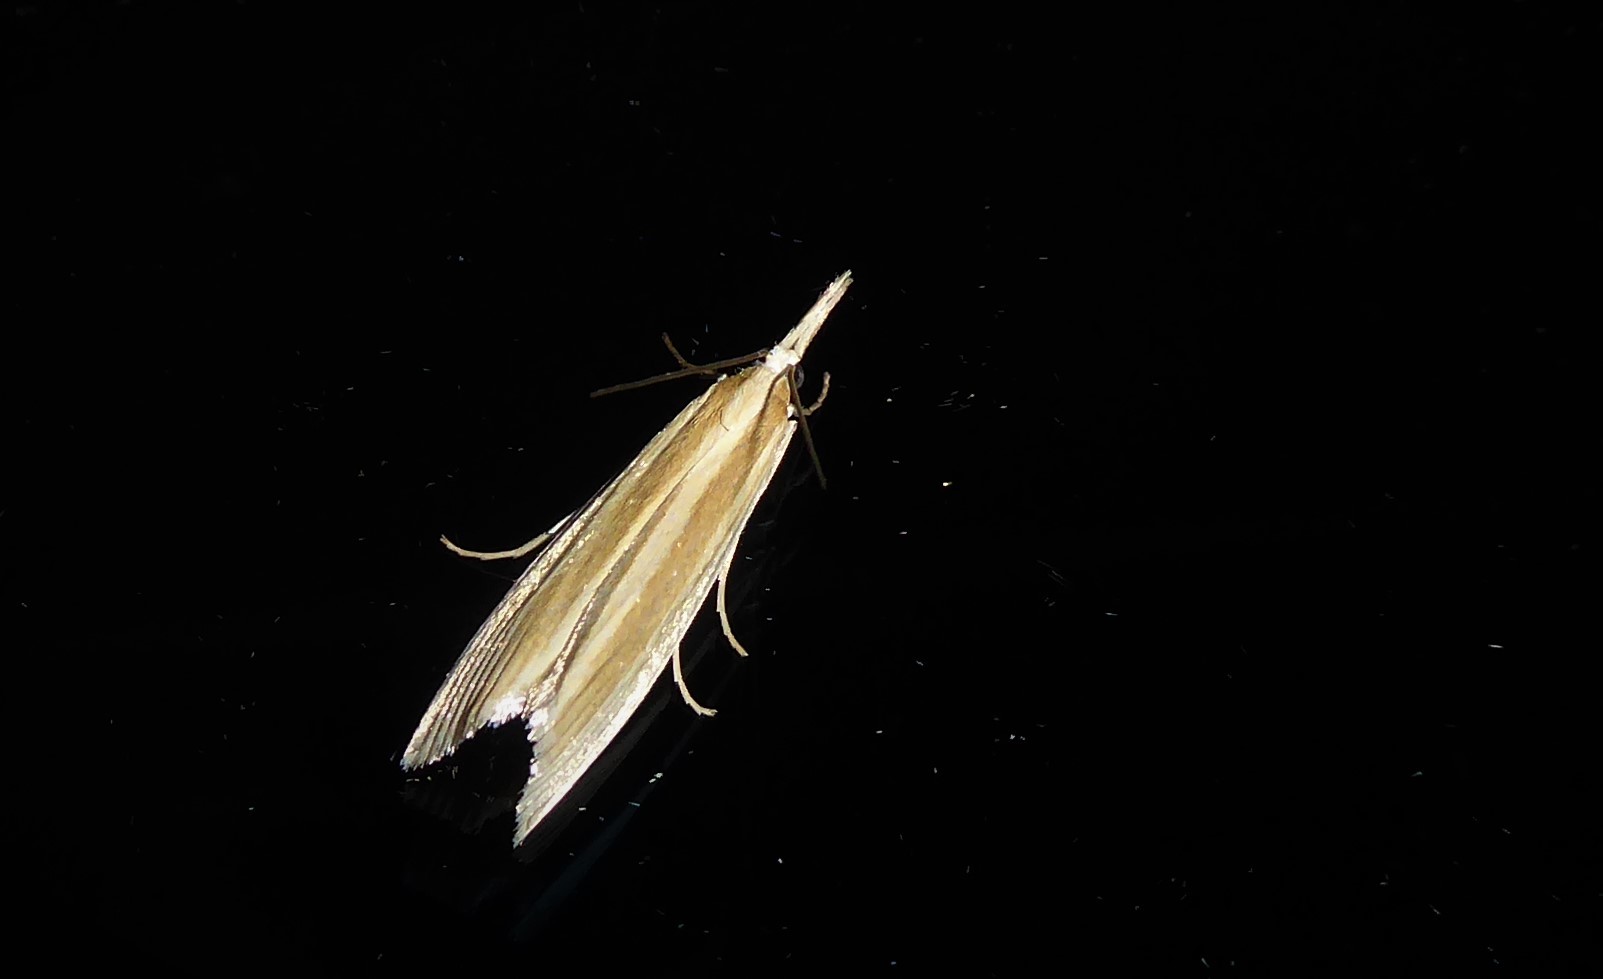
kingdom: Animalia
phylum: Arthropoda
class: Insecta
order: Lepidoptera
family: Crambidae
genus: Orocrambus
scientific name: Orocrambus angustipennis
